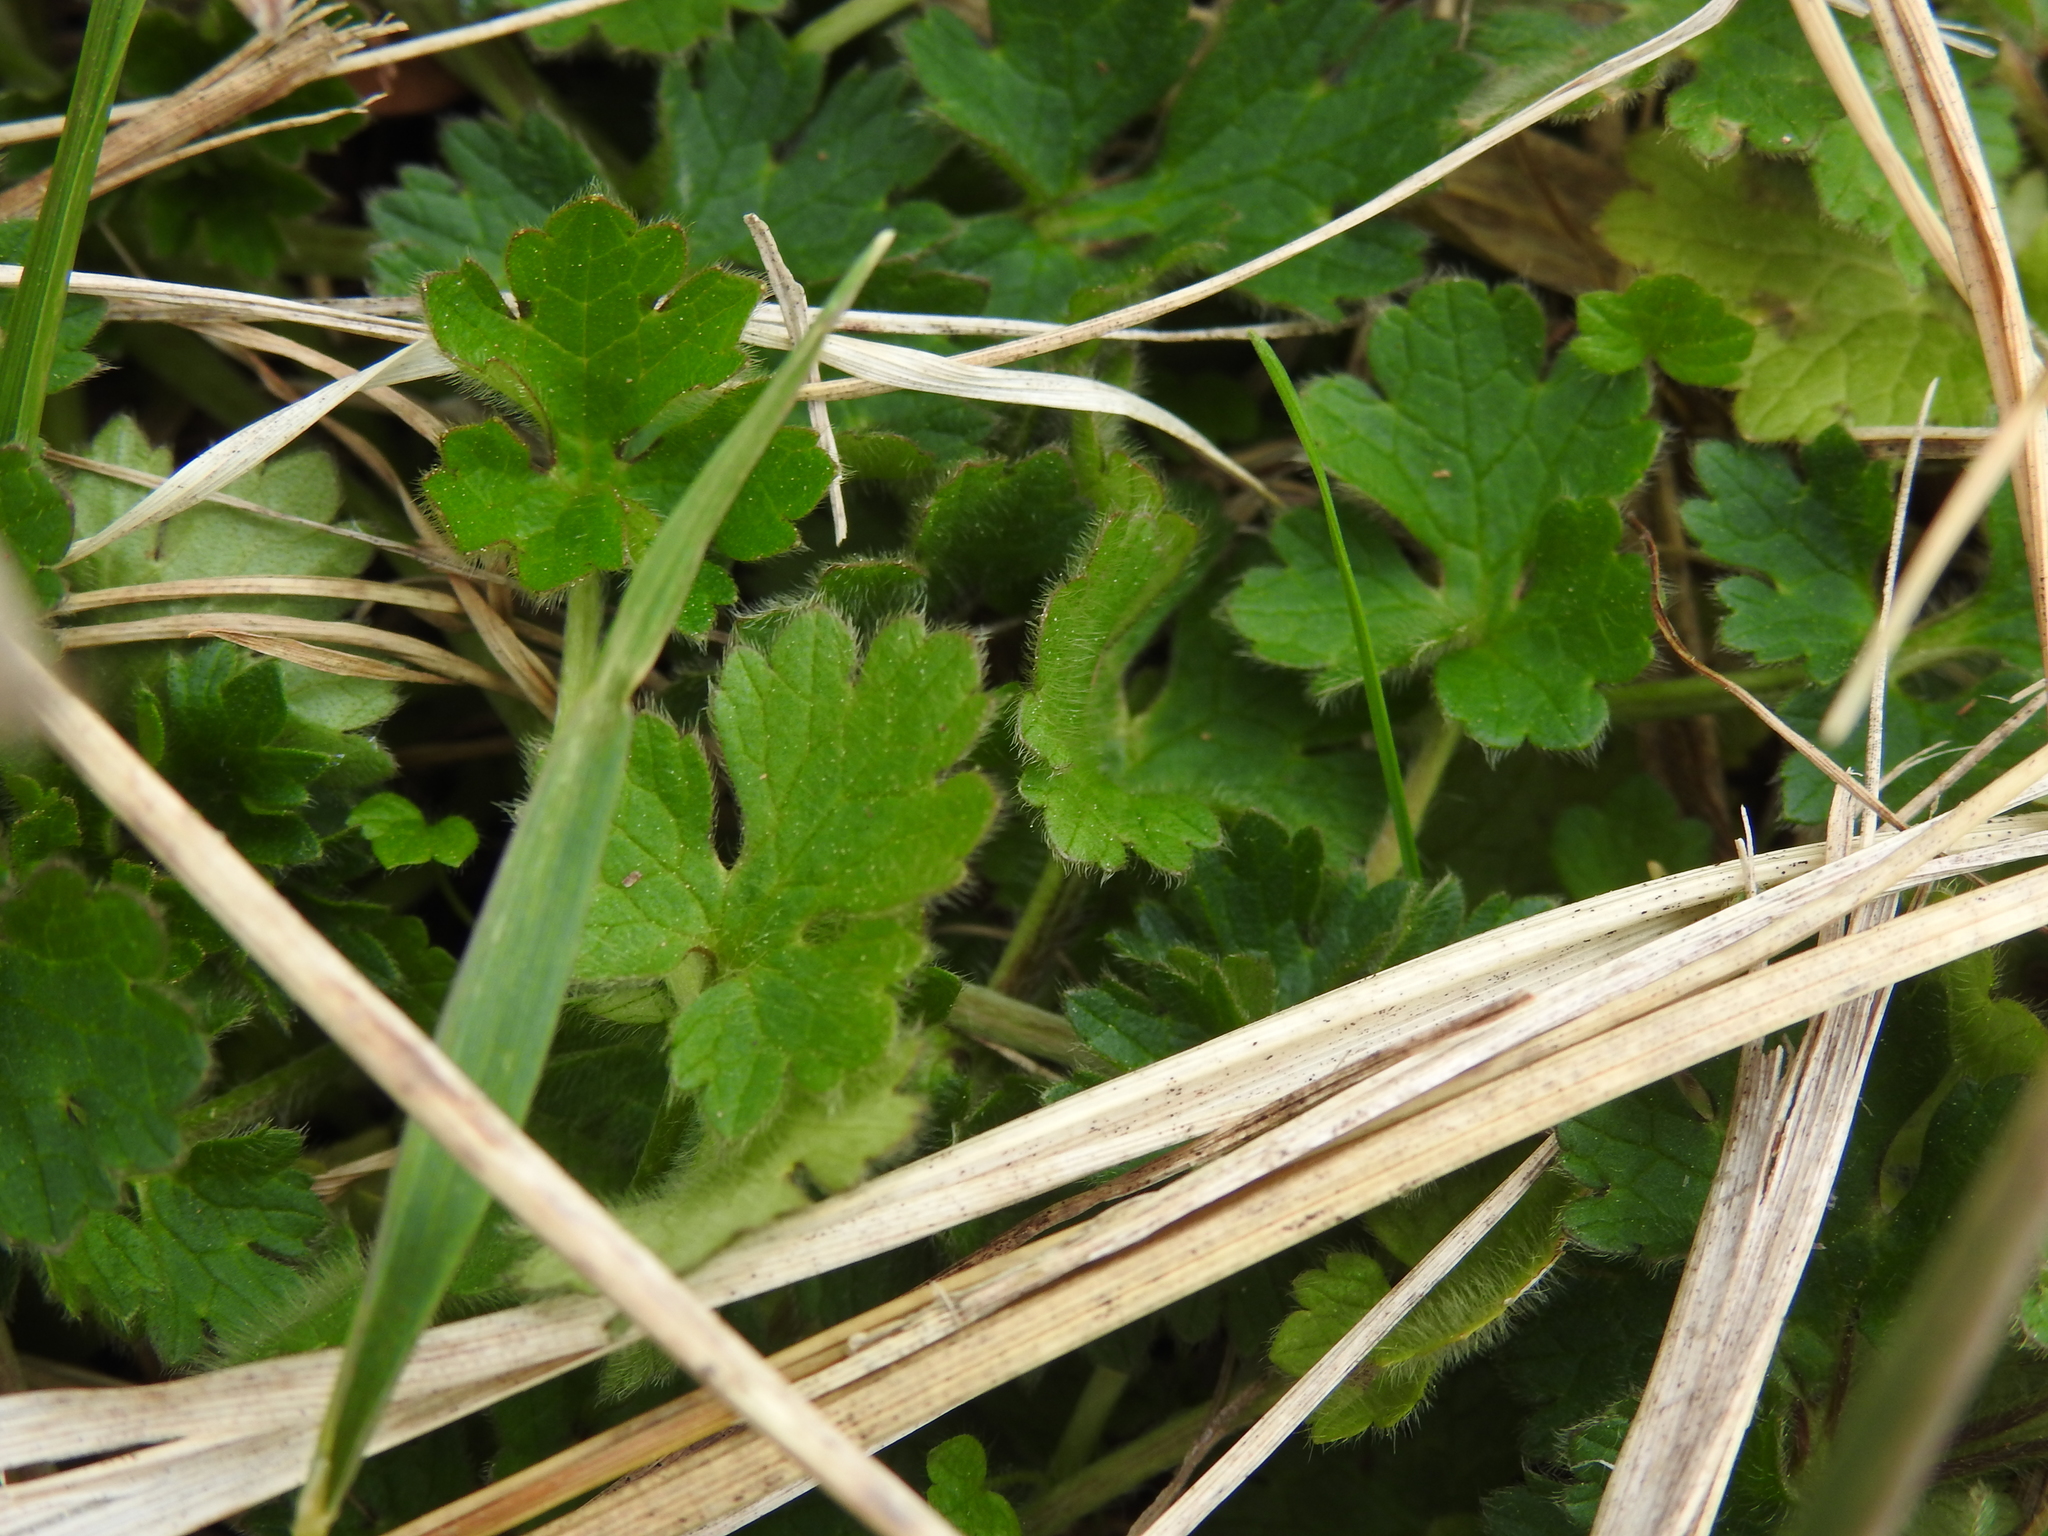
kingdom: Plantae
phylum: Tracheophyta
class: Magnoliopsida
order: Ranunculales
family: Ranunculaceae
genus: Ranunculus
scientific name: Ranunculus bulbosus
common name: Bulbous buttercup
